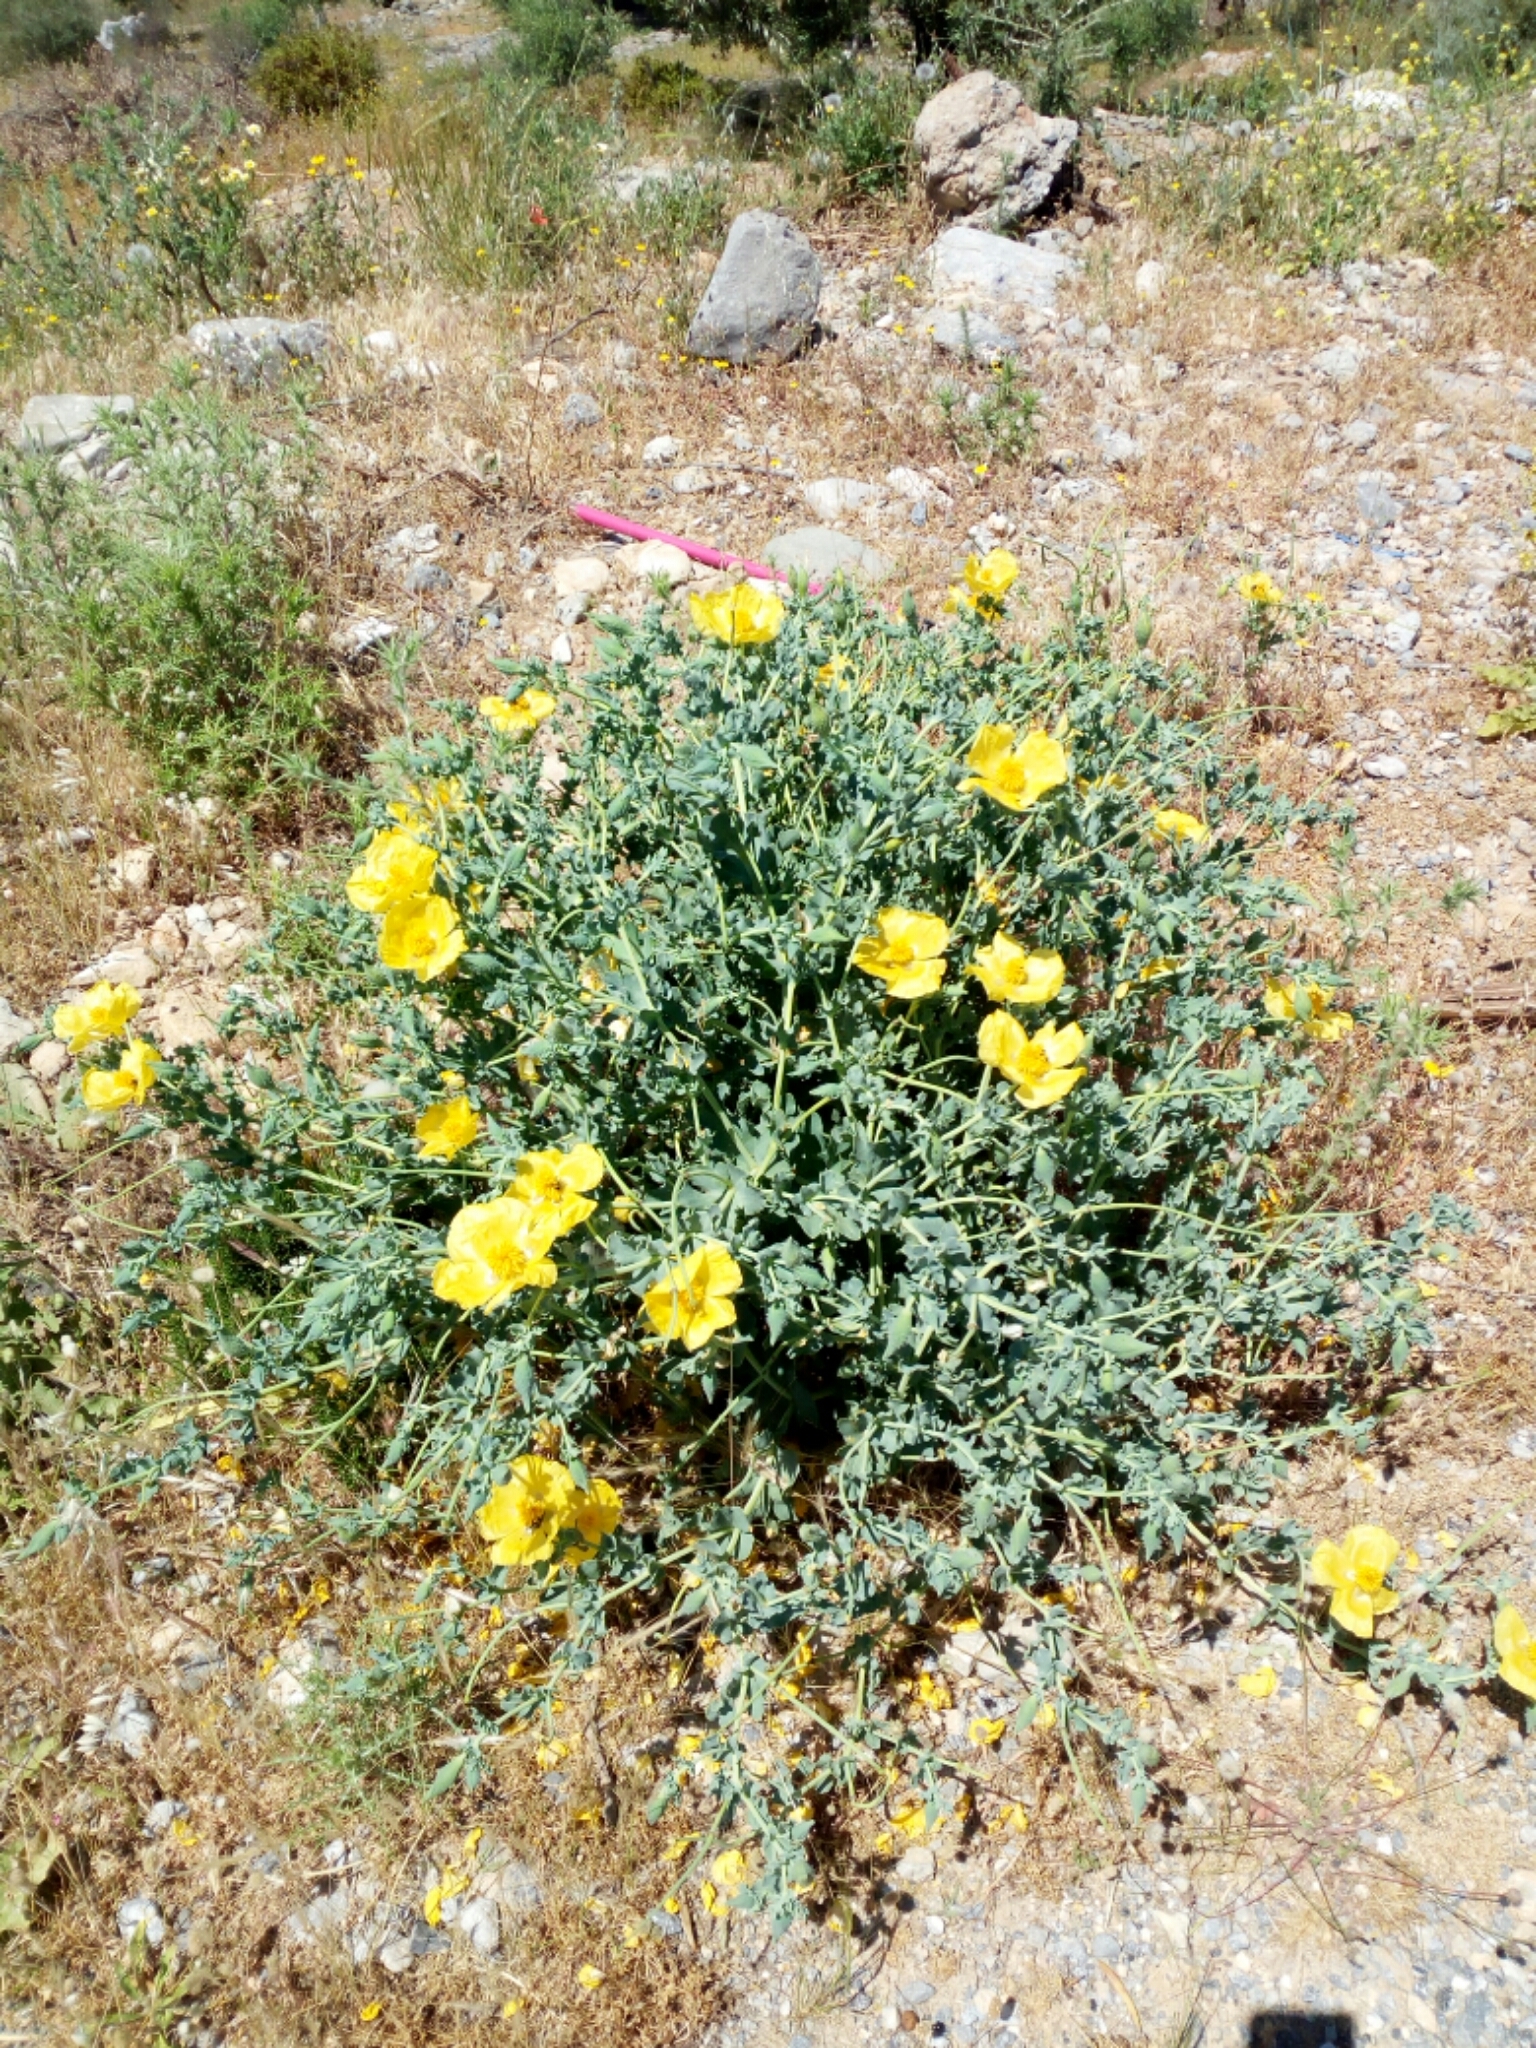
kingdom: Plantae
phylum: Tracheophyta
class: Magnoliopsida
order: Ranunculales
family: Papaveraceae
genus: Glaucium
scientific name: Glaucium flavum
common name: Yellow horned-poppy
